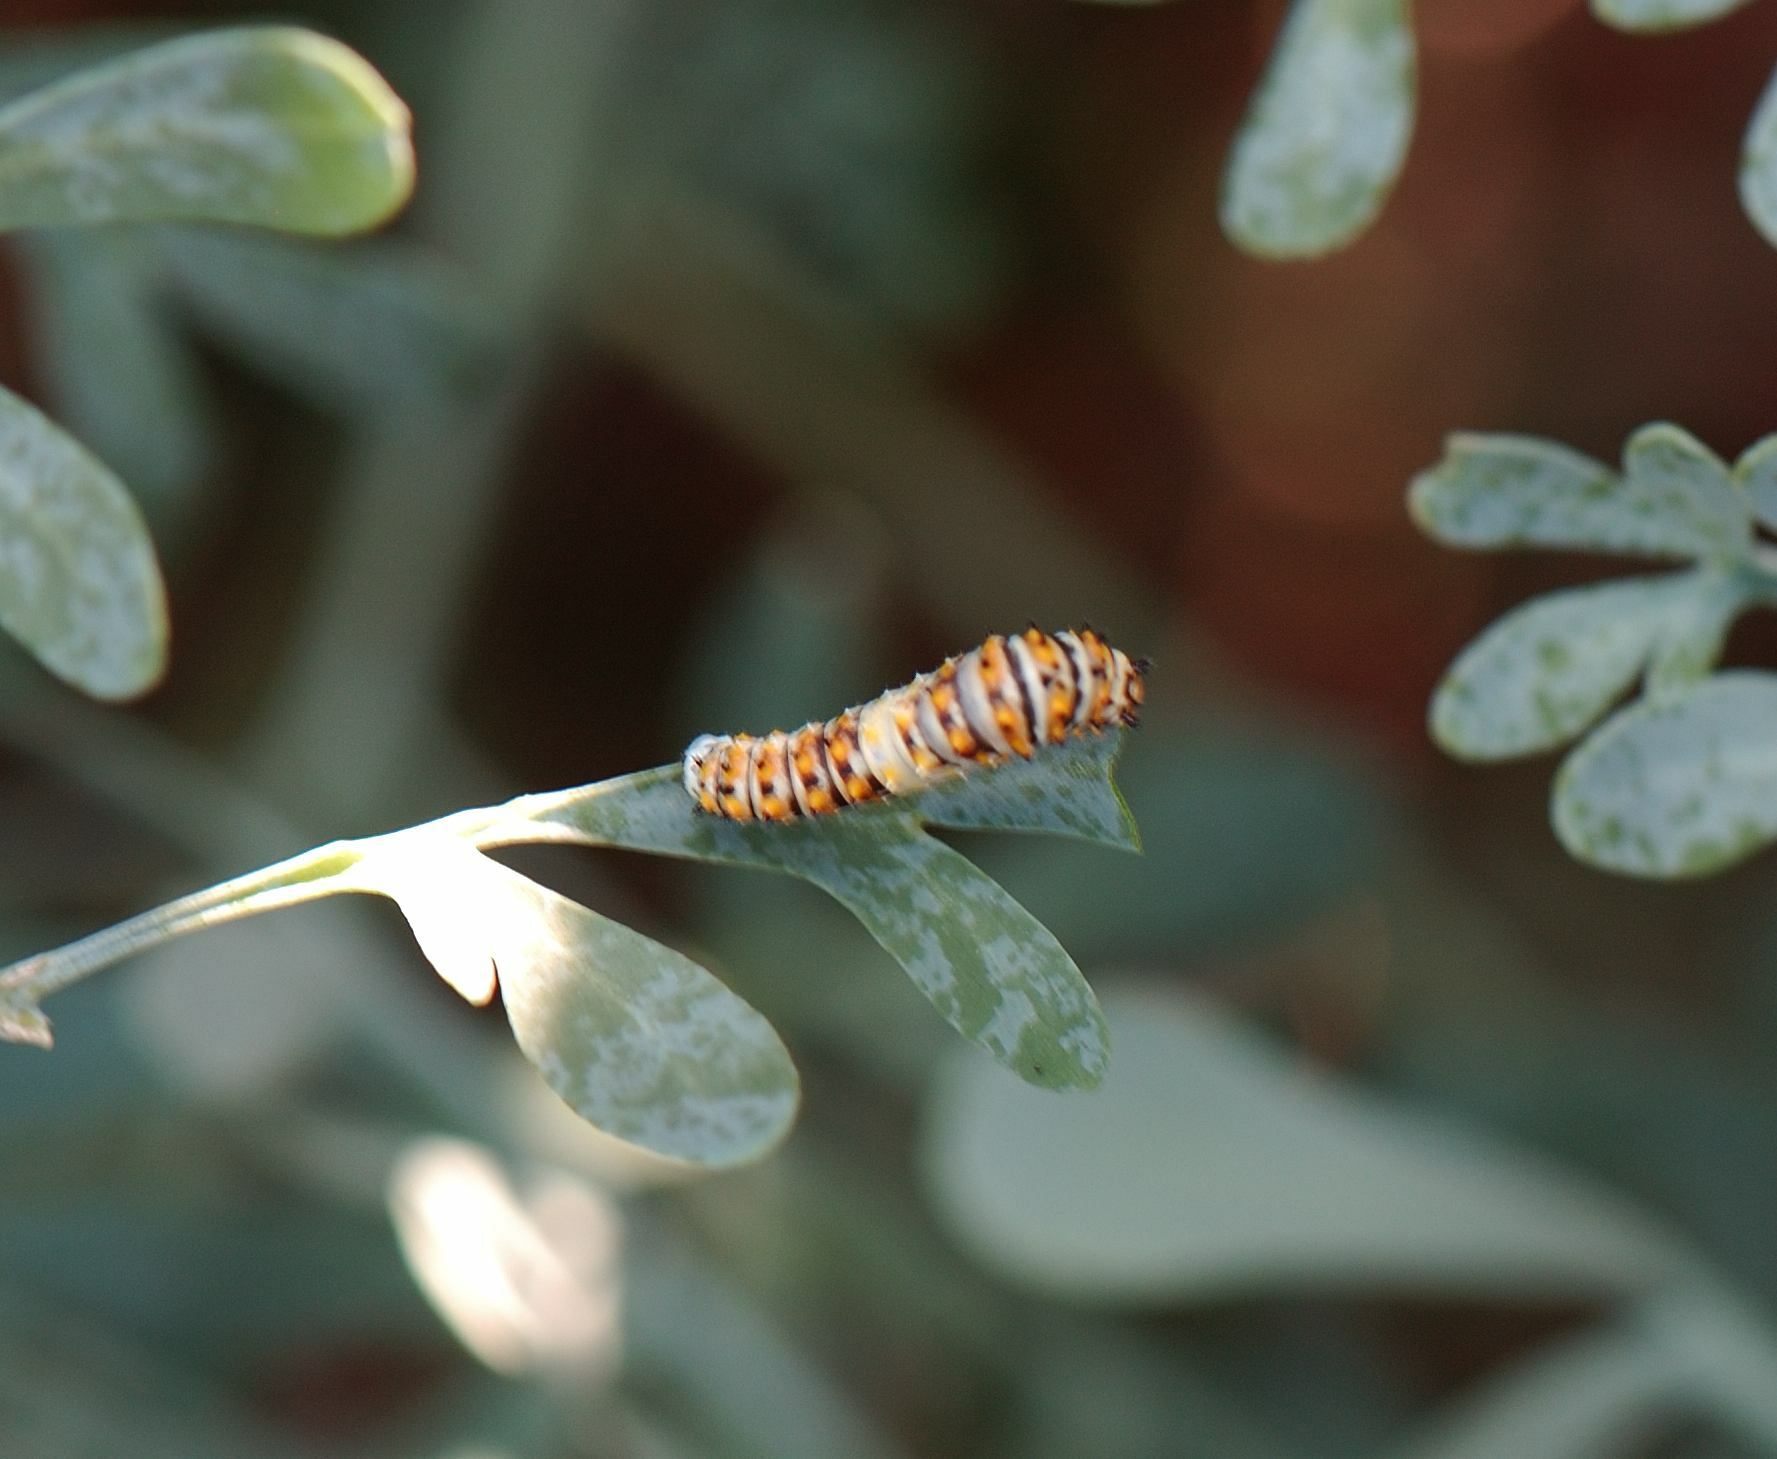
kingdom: Animalia
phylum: Arthropoda
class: Insecta
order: Lepidoptera
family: Papilionidae
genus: Papilio
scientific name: Papilio polyxenes
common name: Black swallowtail
